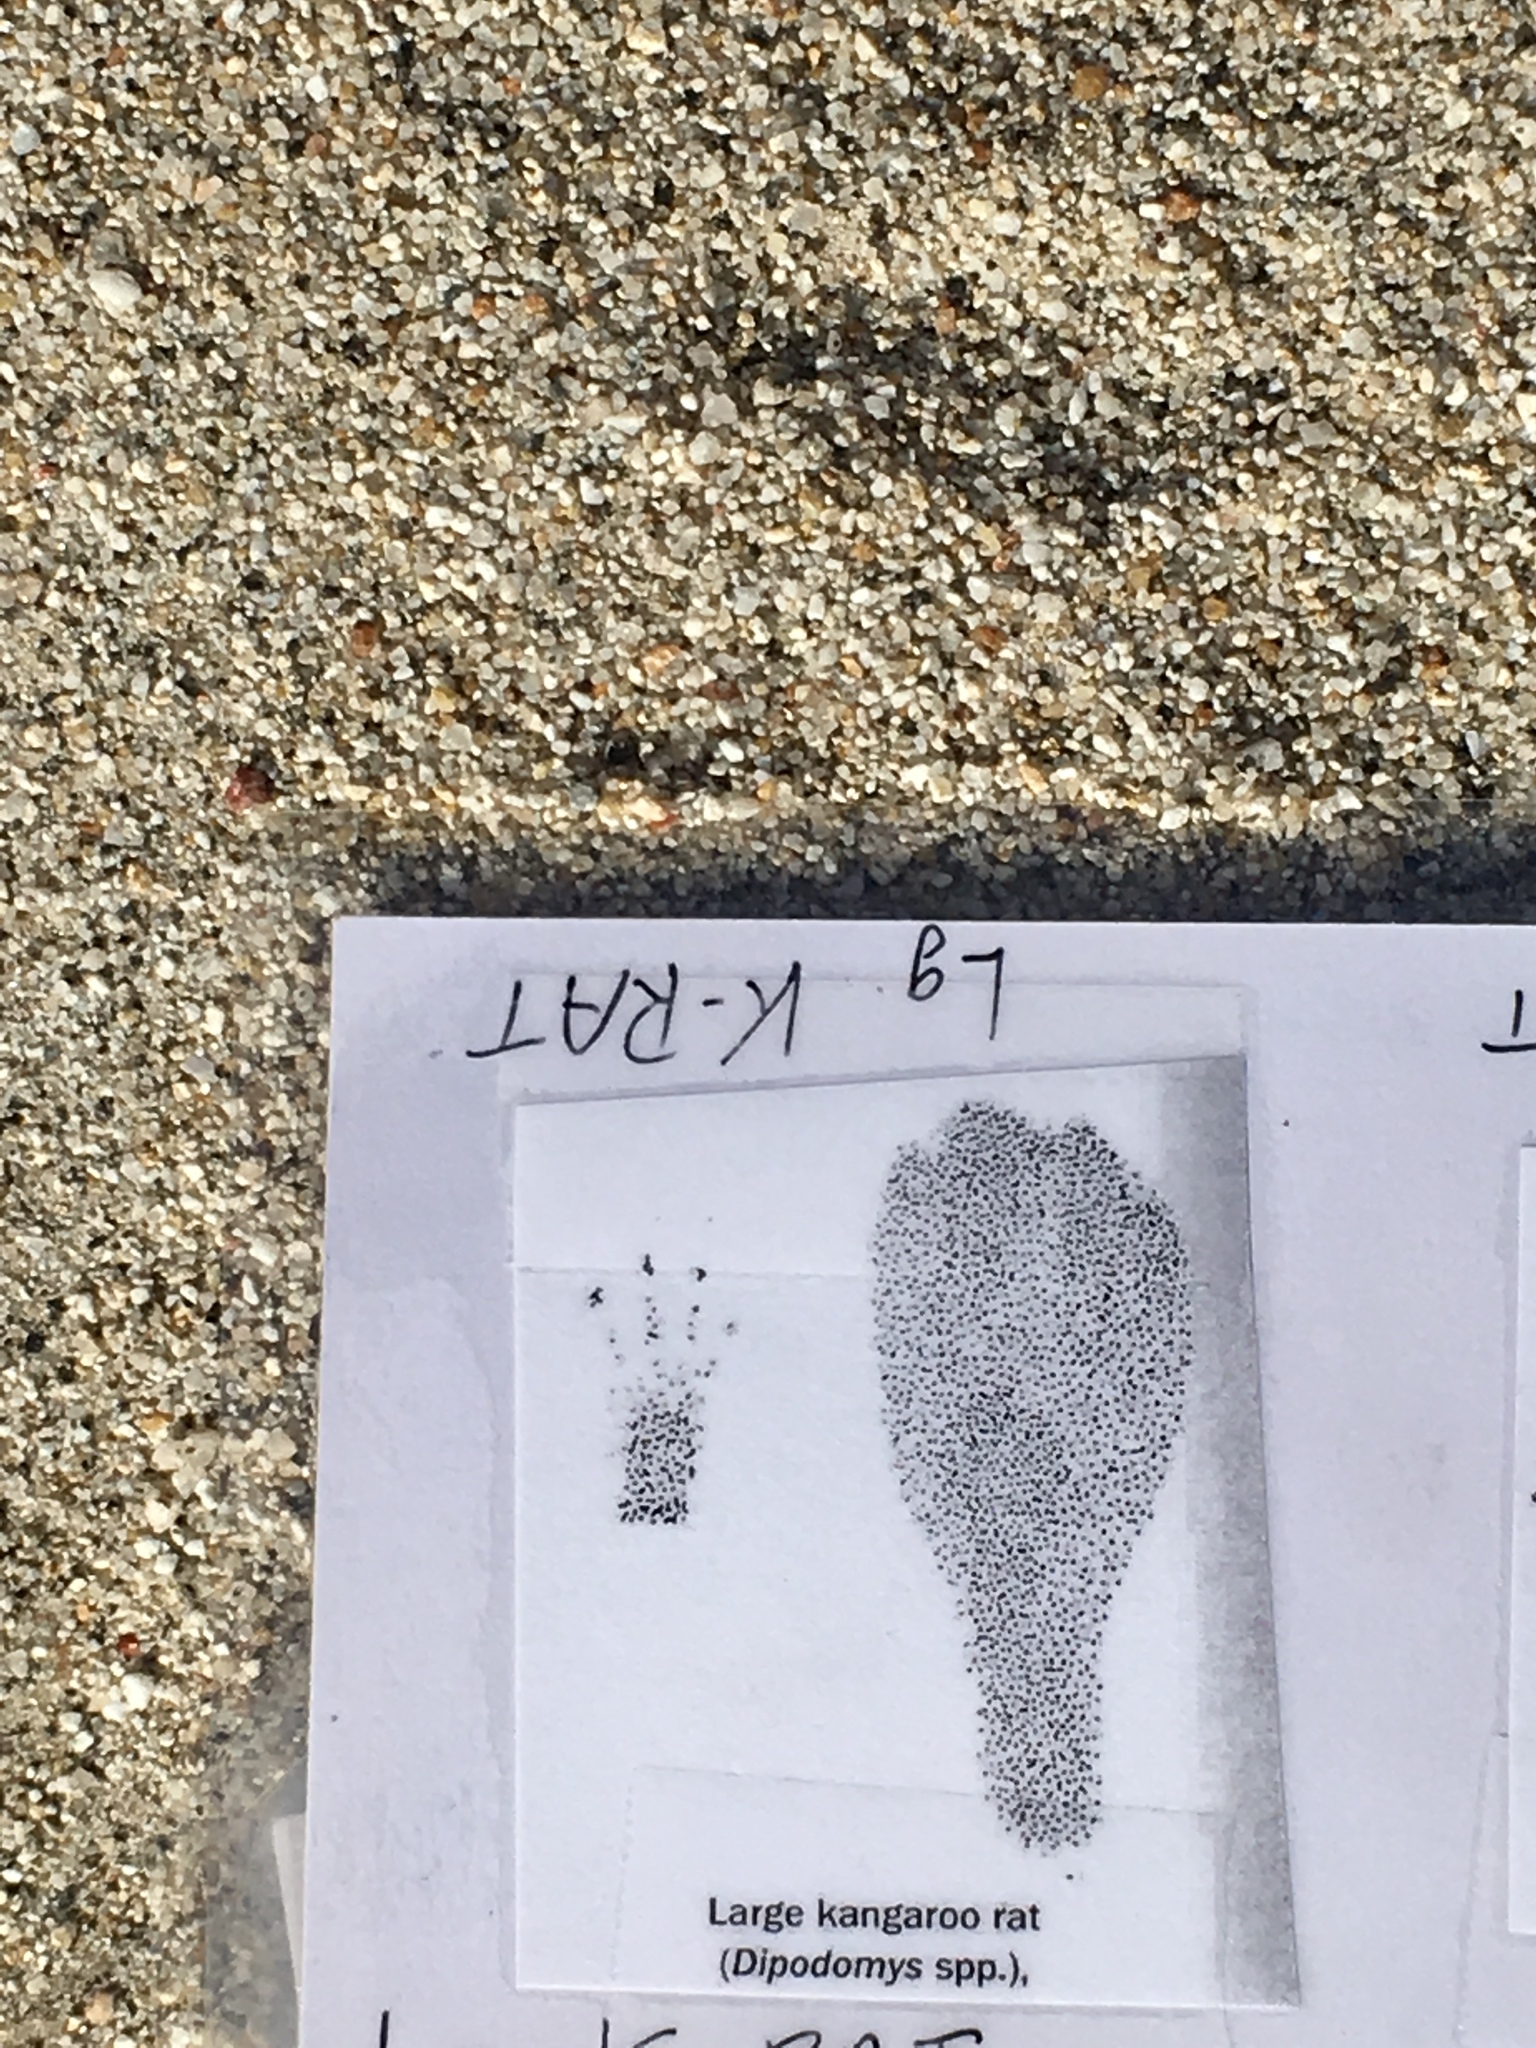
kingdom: Animalia
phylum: Chordata
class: Mammalia
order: Rodentia
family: Heteromyidae
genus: Dipodomys
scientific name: Dipodomys deserti
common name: Desert kangaroo rat
